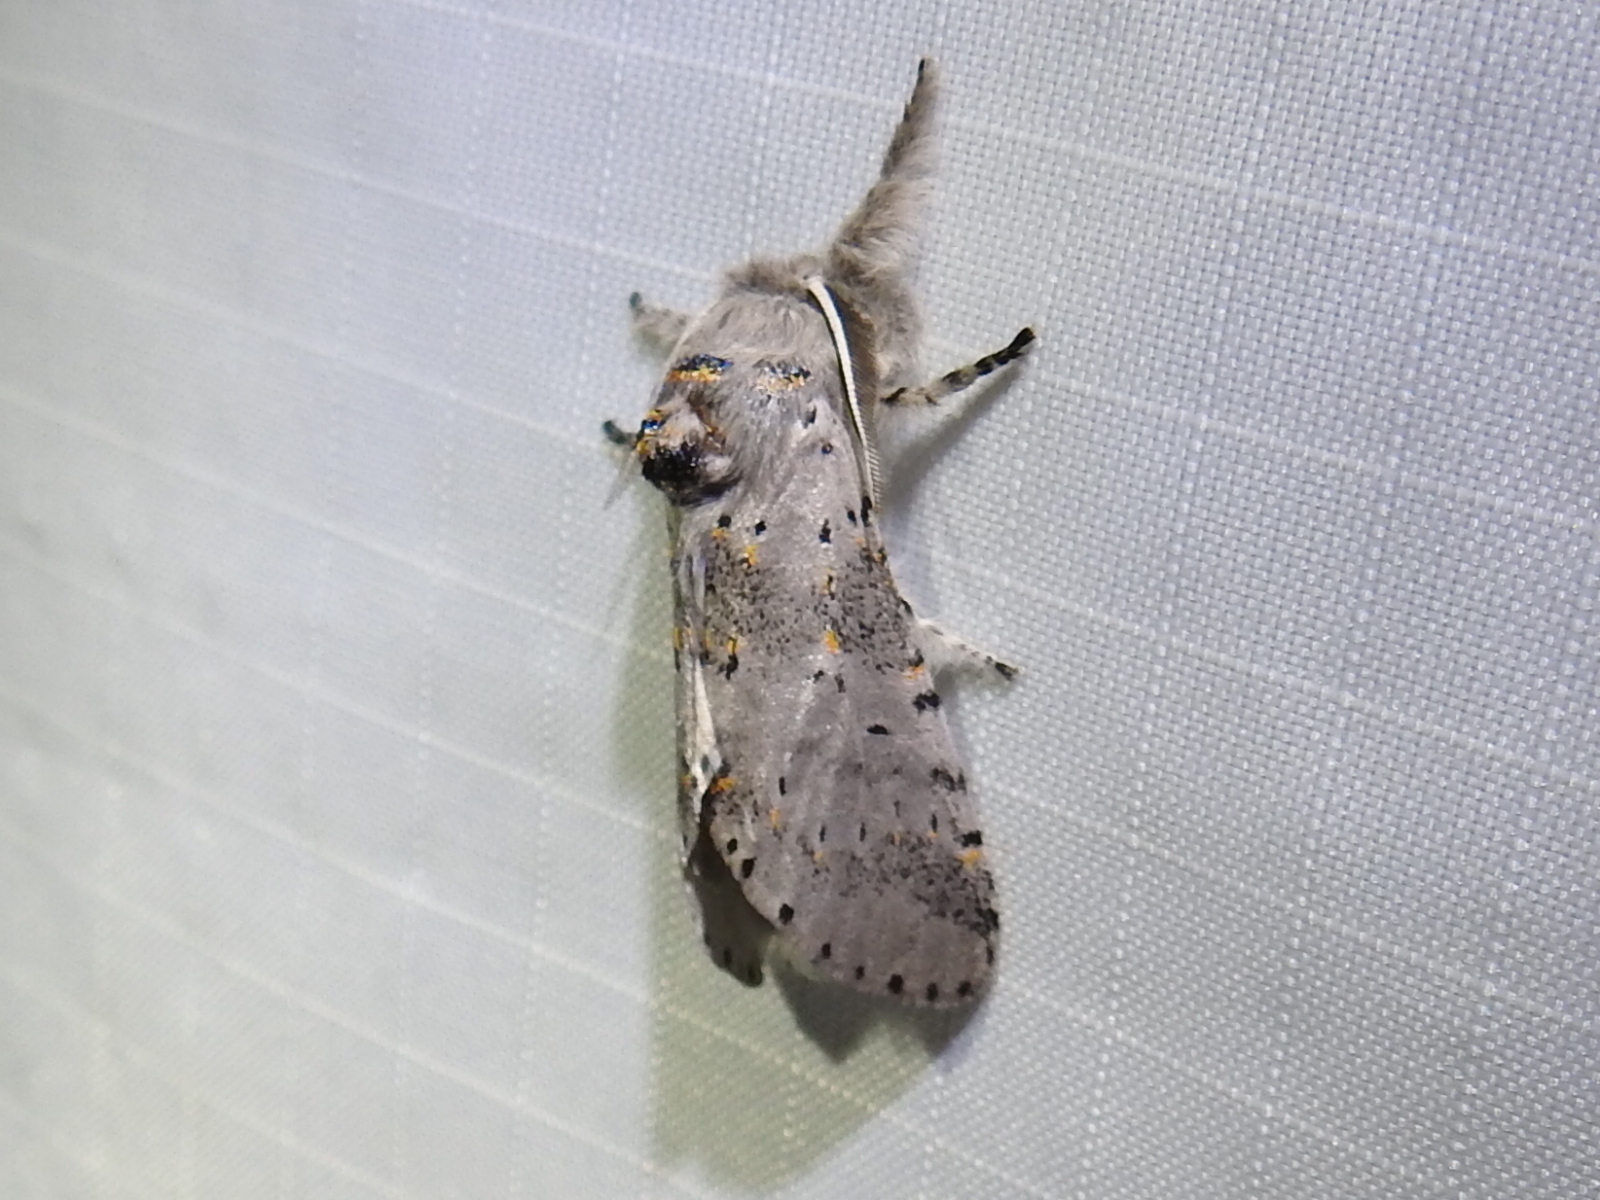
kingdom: Animalia
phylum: Arthropoda
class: Insecta
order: Lepidoptera
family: Notodontidae
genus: Furcula
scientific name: Furcula cinerea
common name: Gray furcula
